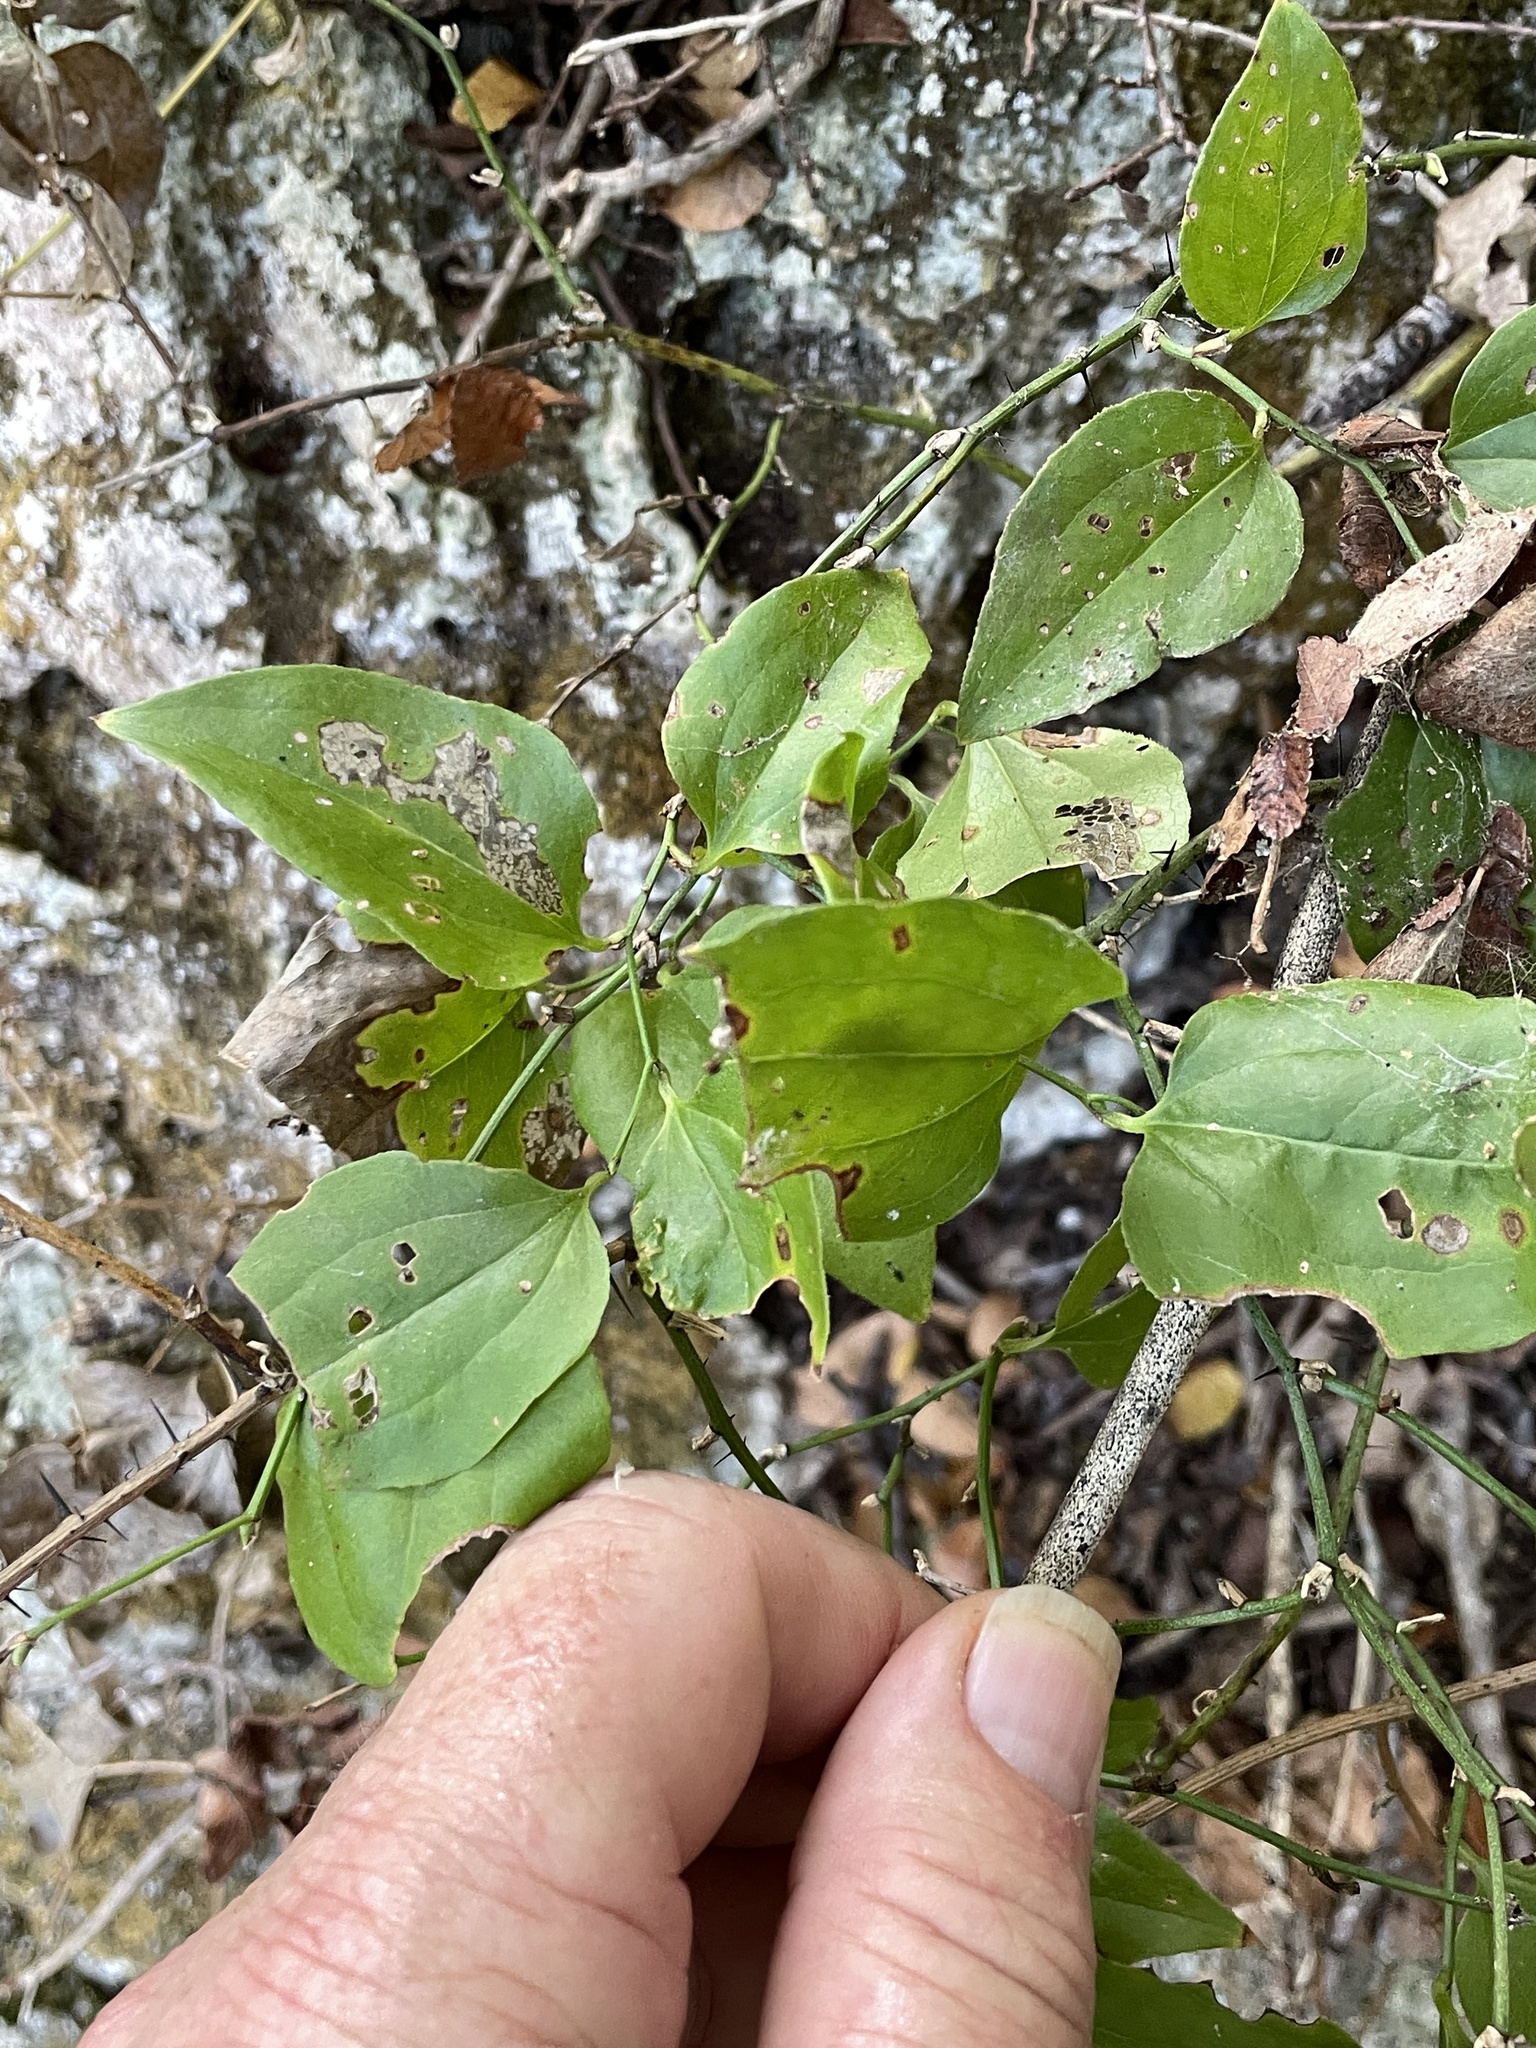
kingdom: Plantae
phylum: Tracheophyta
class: Liliopsida
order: Liliales
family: Smilacaceae
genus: Smilax
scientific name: Smilax tamnoides
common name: Hellfetter
